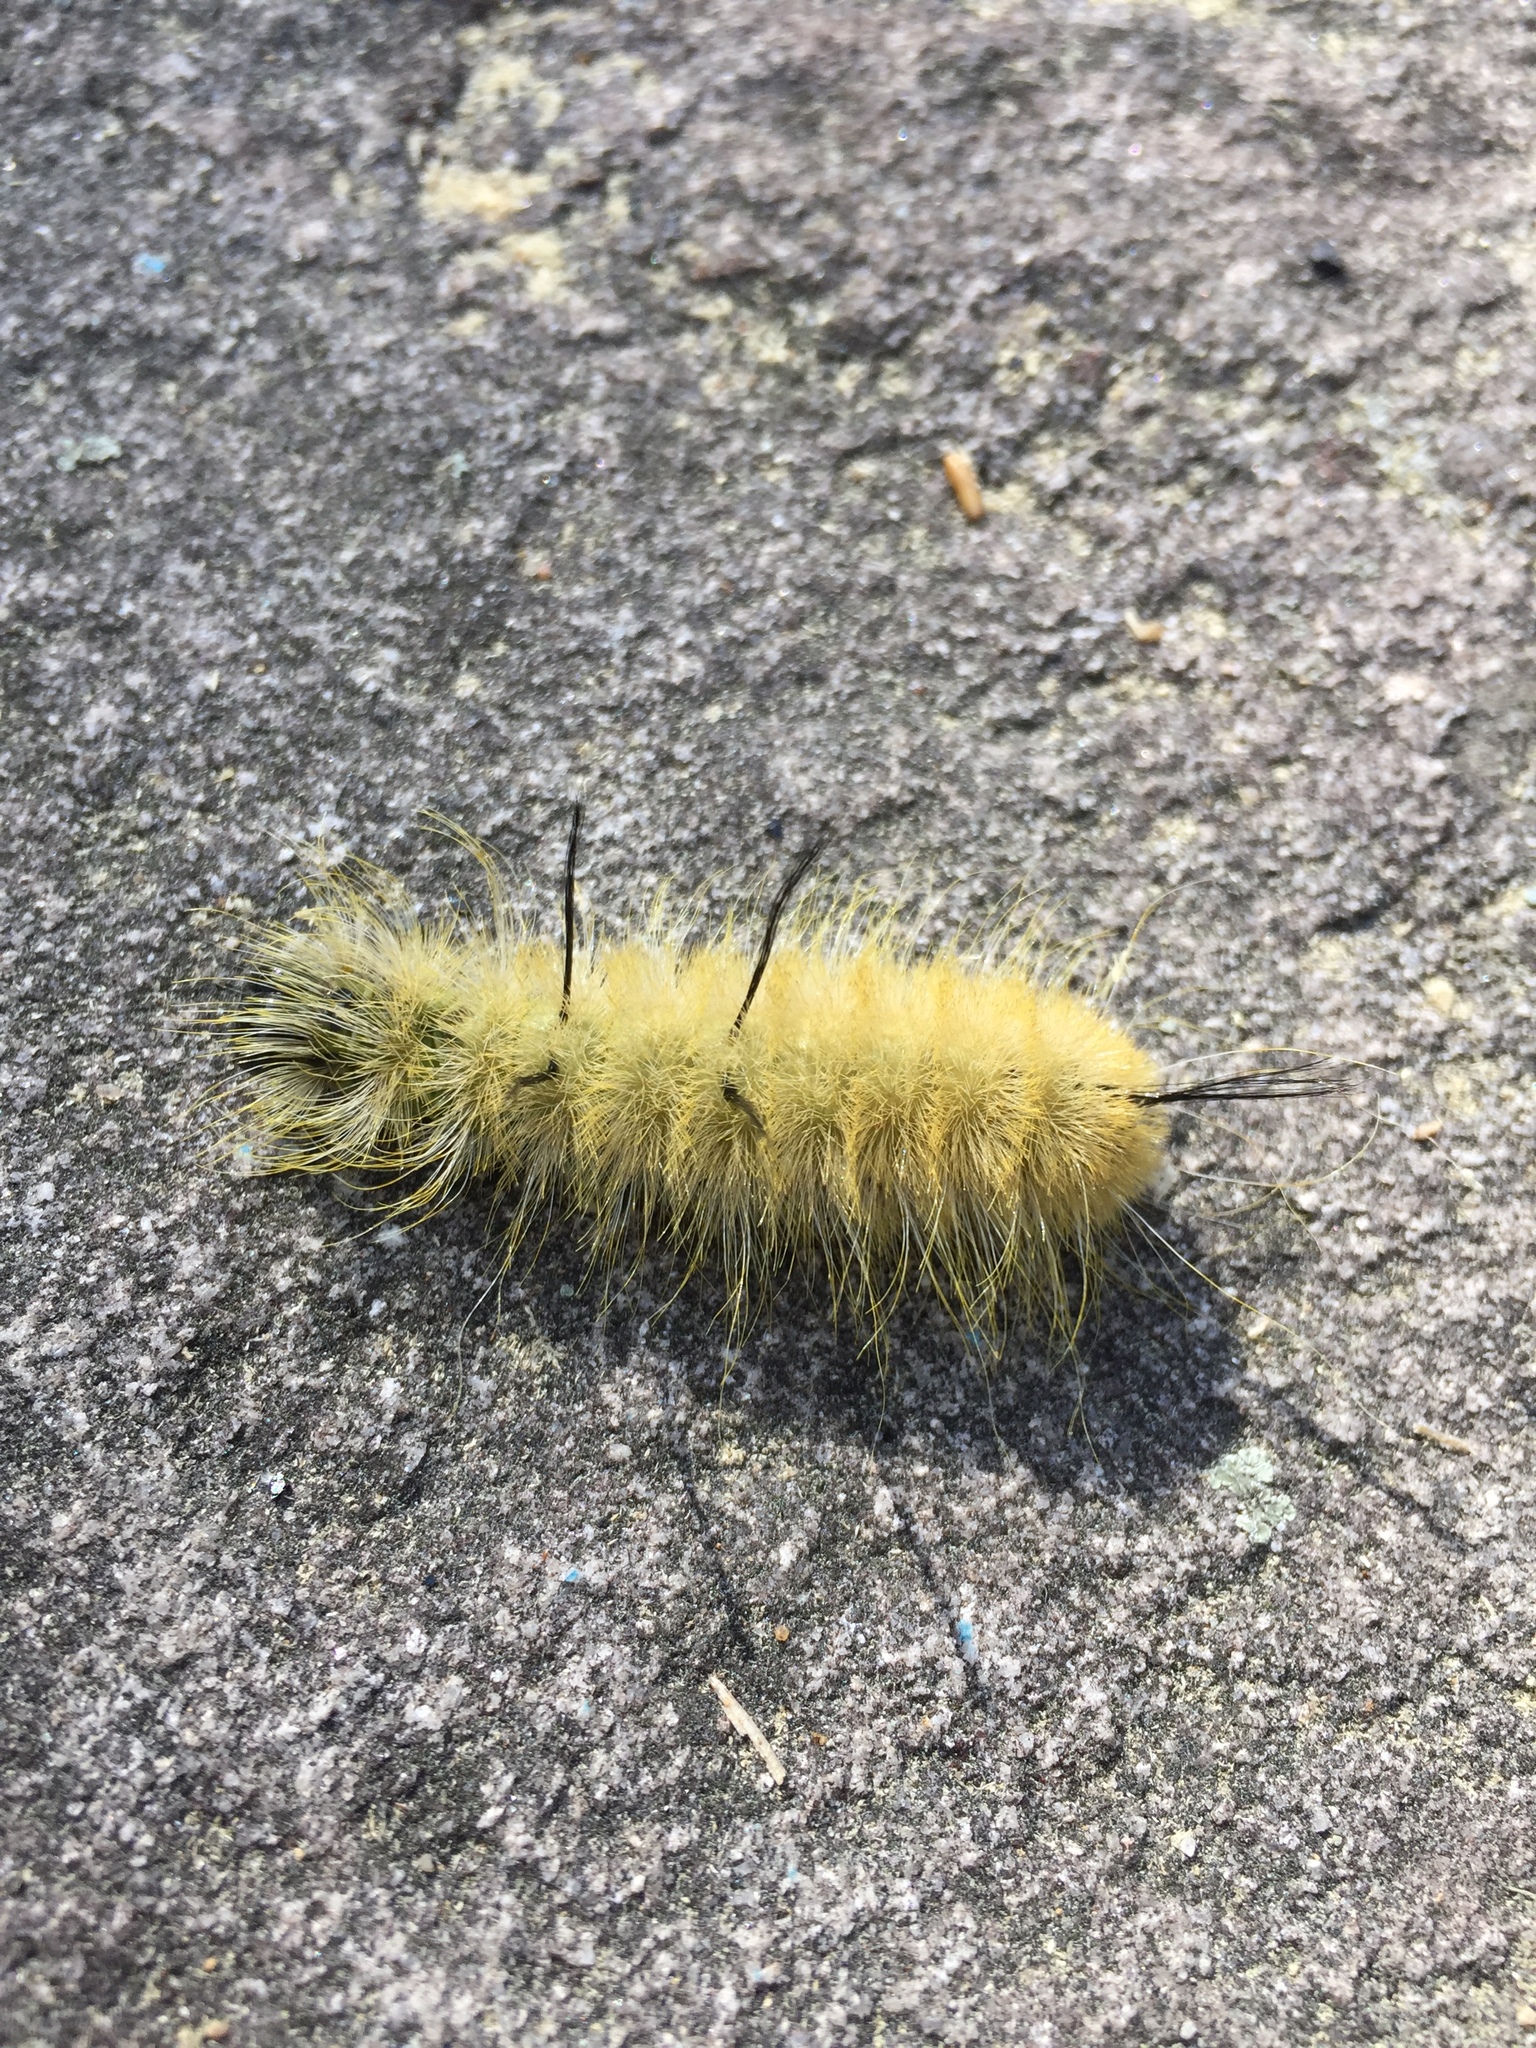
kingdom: Animalia
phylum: Arthropoda
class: Insecta
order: Lepidoptera
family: Noctuidae
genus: Acronicta
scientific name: Acronicta americana
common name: American dagger
